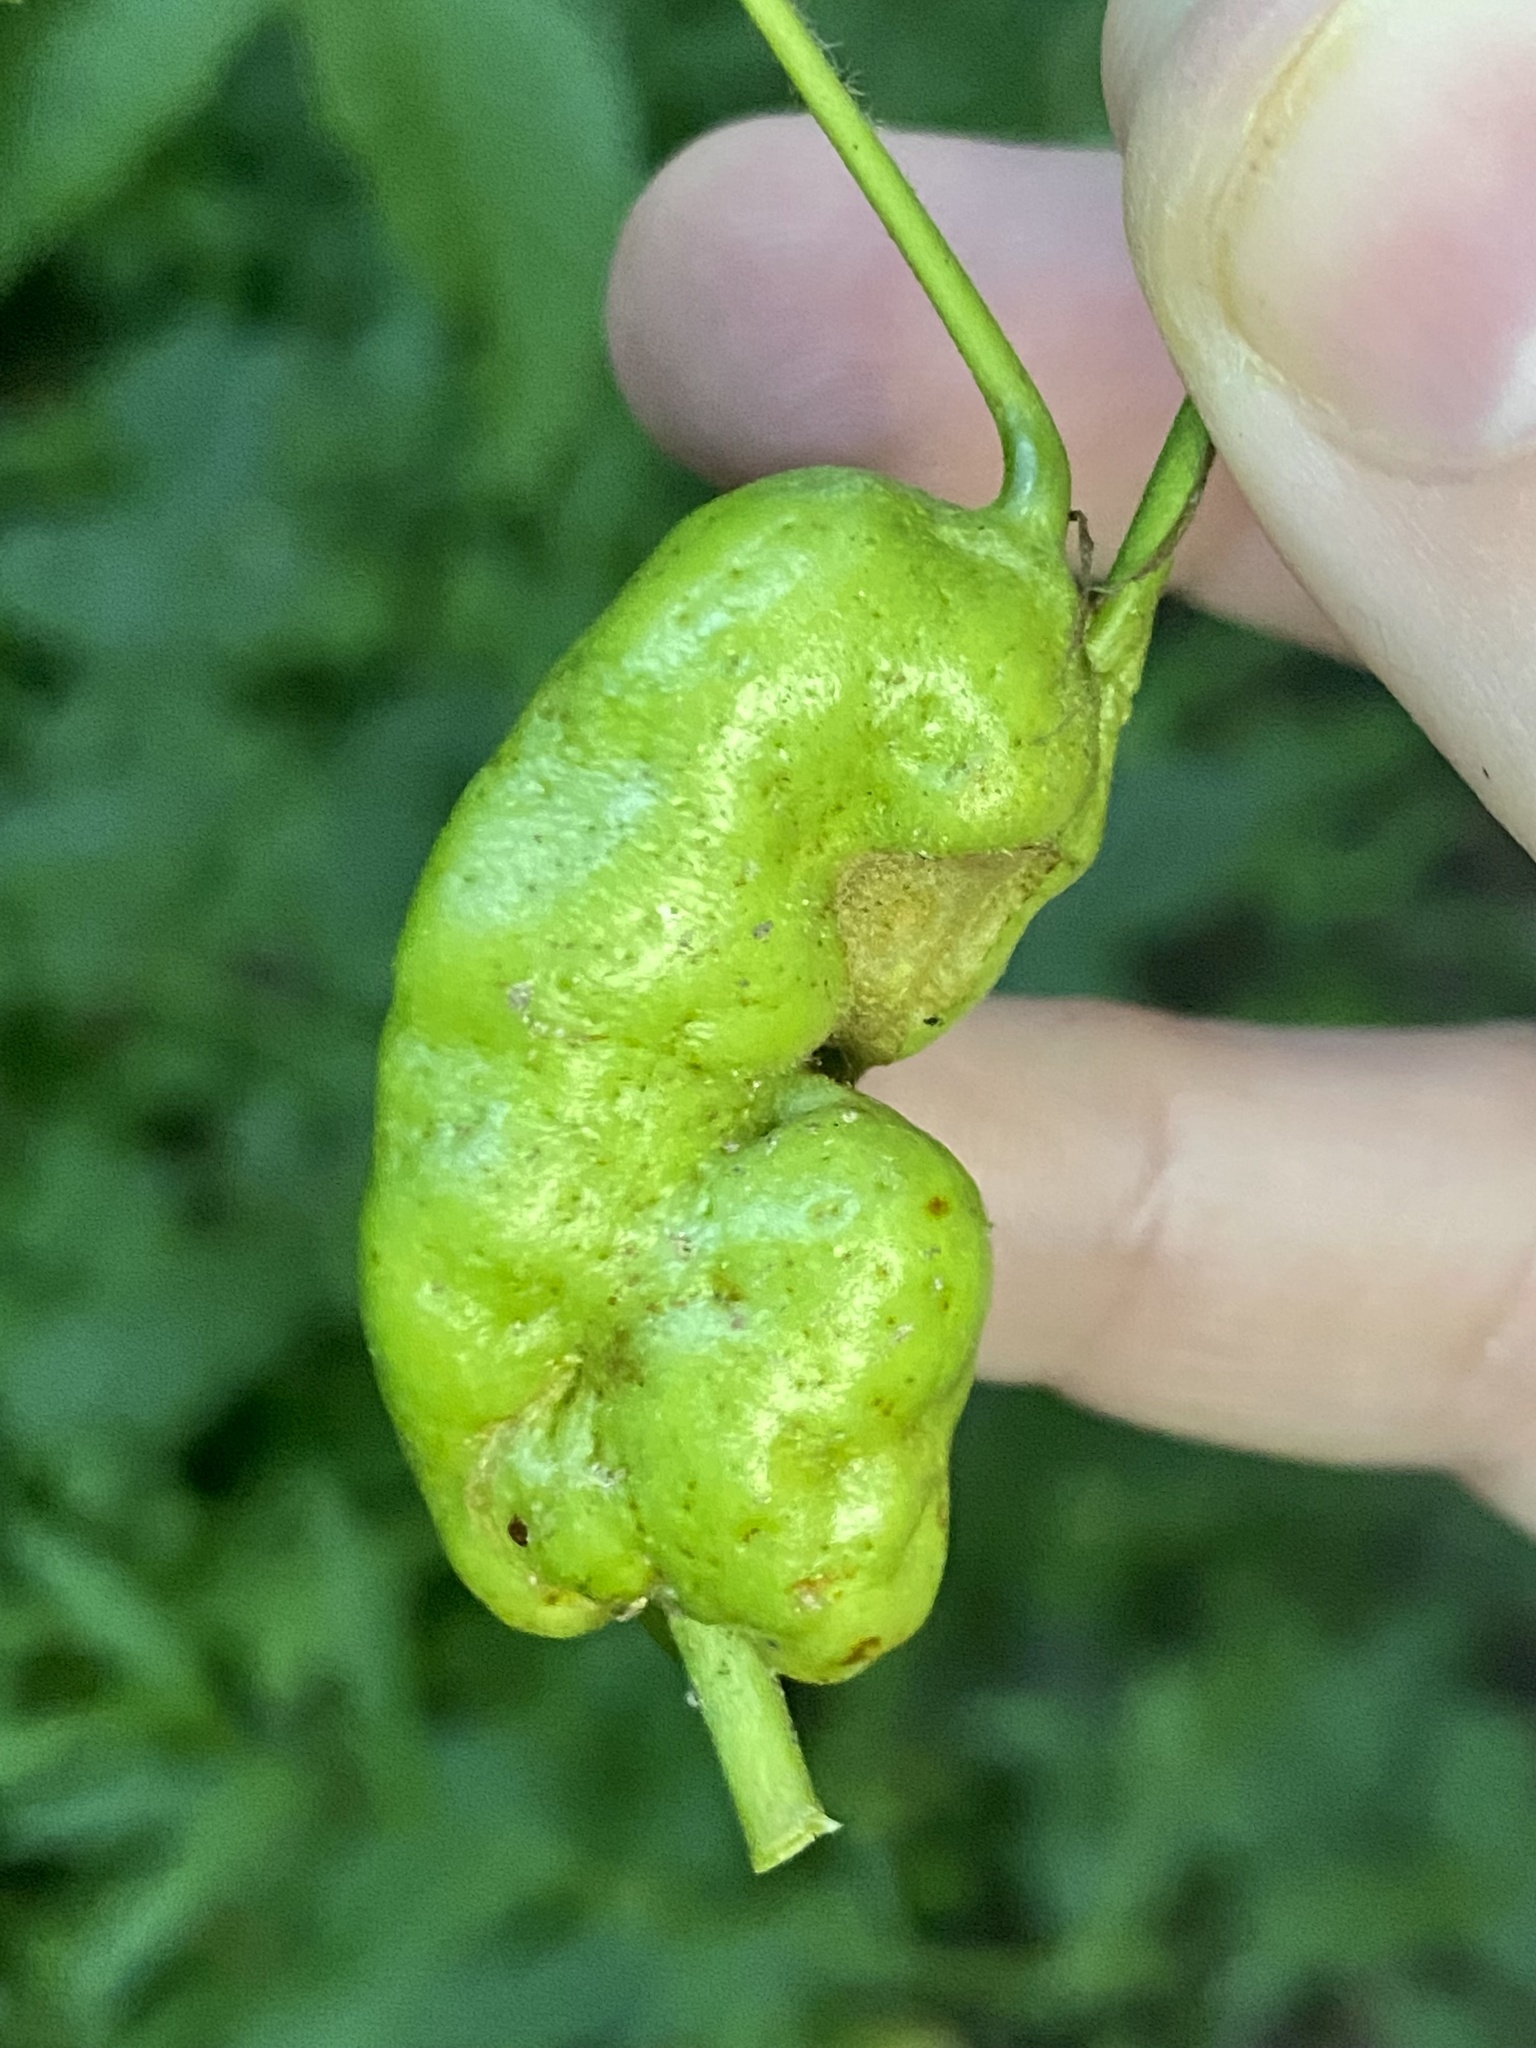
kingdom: Animalia
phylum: Arthropoda
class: Insecta
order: Hymenoptera
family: Cynipidae
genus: Diastrophus
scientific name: Diastrophus
